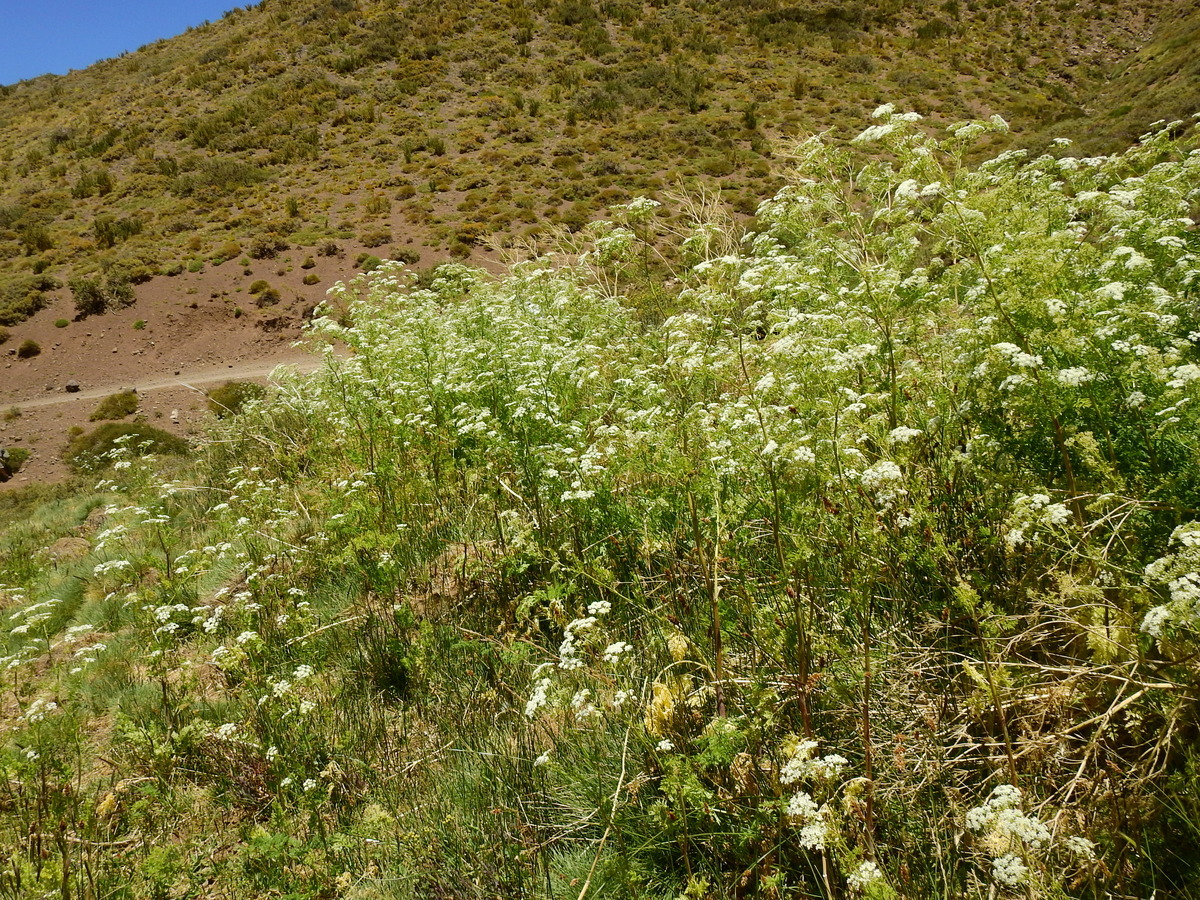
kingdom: Plantae
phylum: Tracheophyta
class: Magnoliopsida
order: Apiales
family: Apiaceae
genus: Conium
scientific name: Conium maculatum
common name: Hemlock
